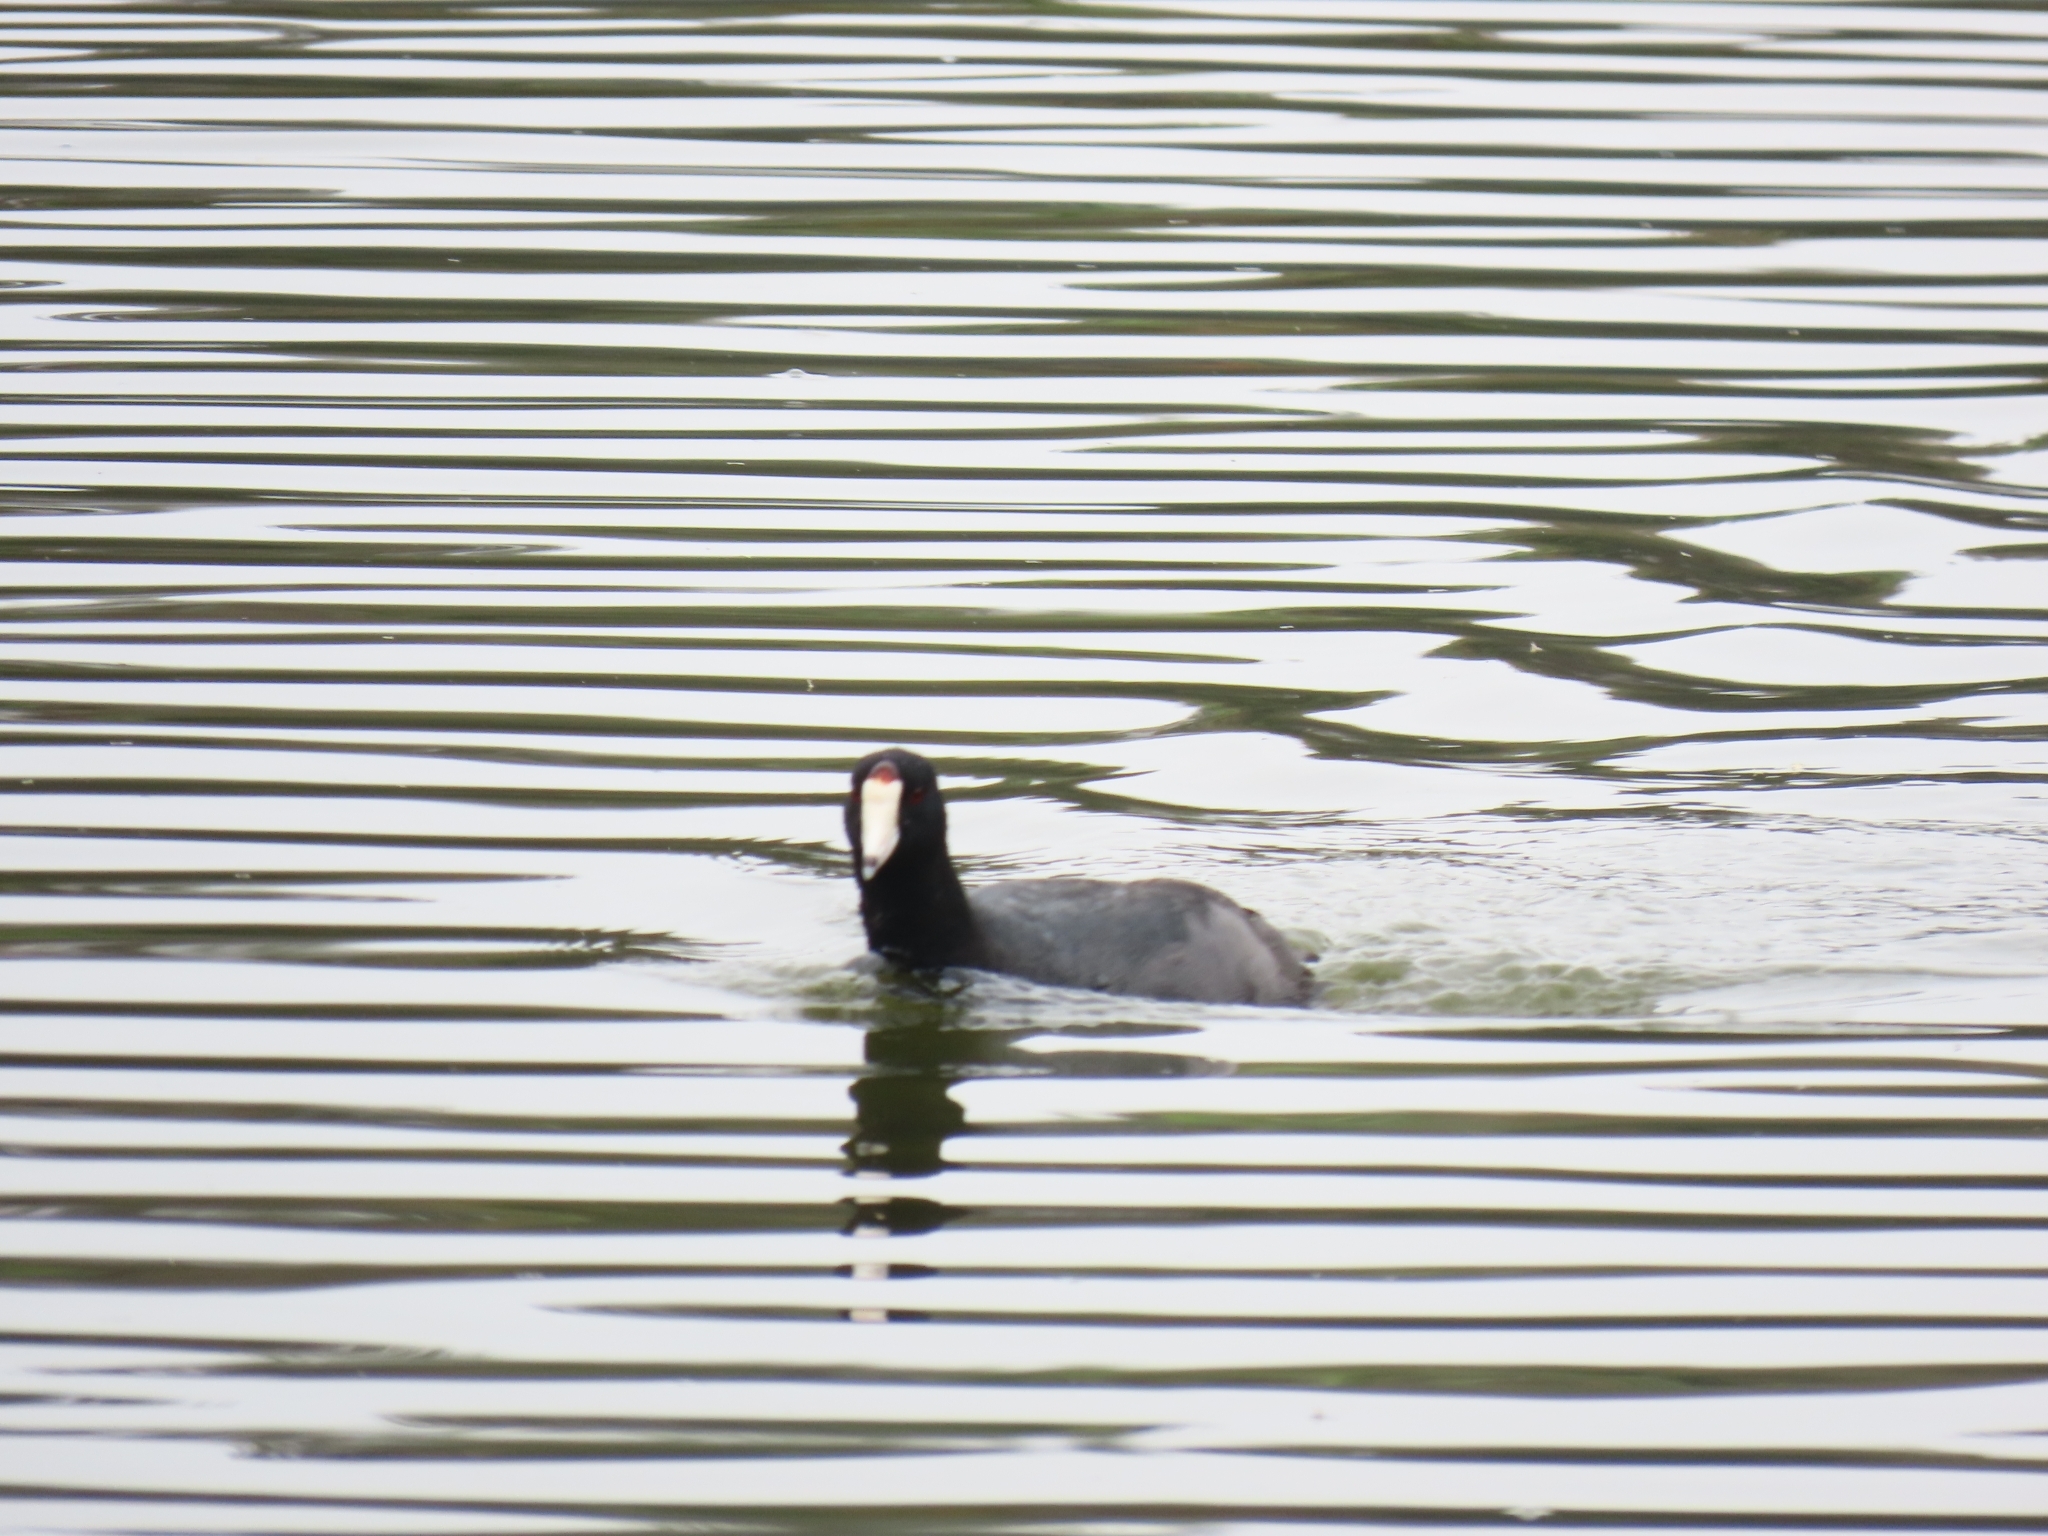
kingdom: Animalia
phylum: Chordata
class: Aves
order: Gruiformes
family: Rallidae
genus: Fulica
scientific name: Fulica americana
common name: American coot
